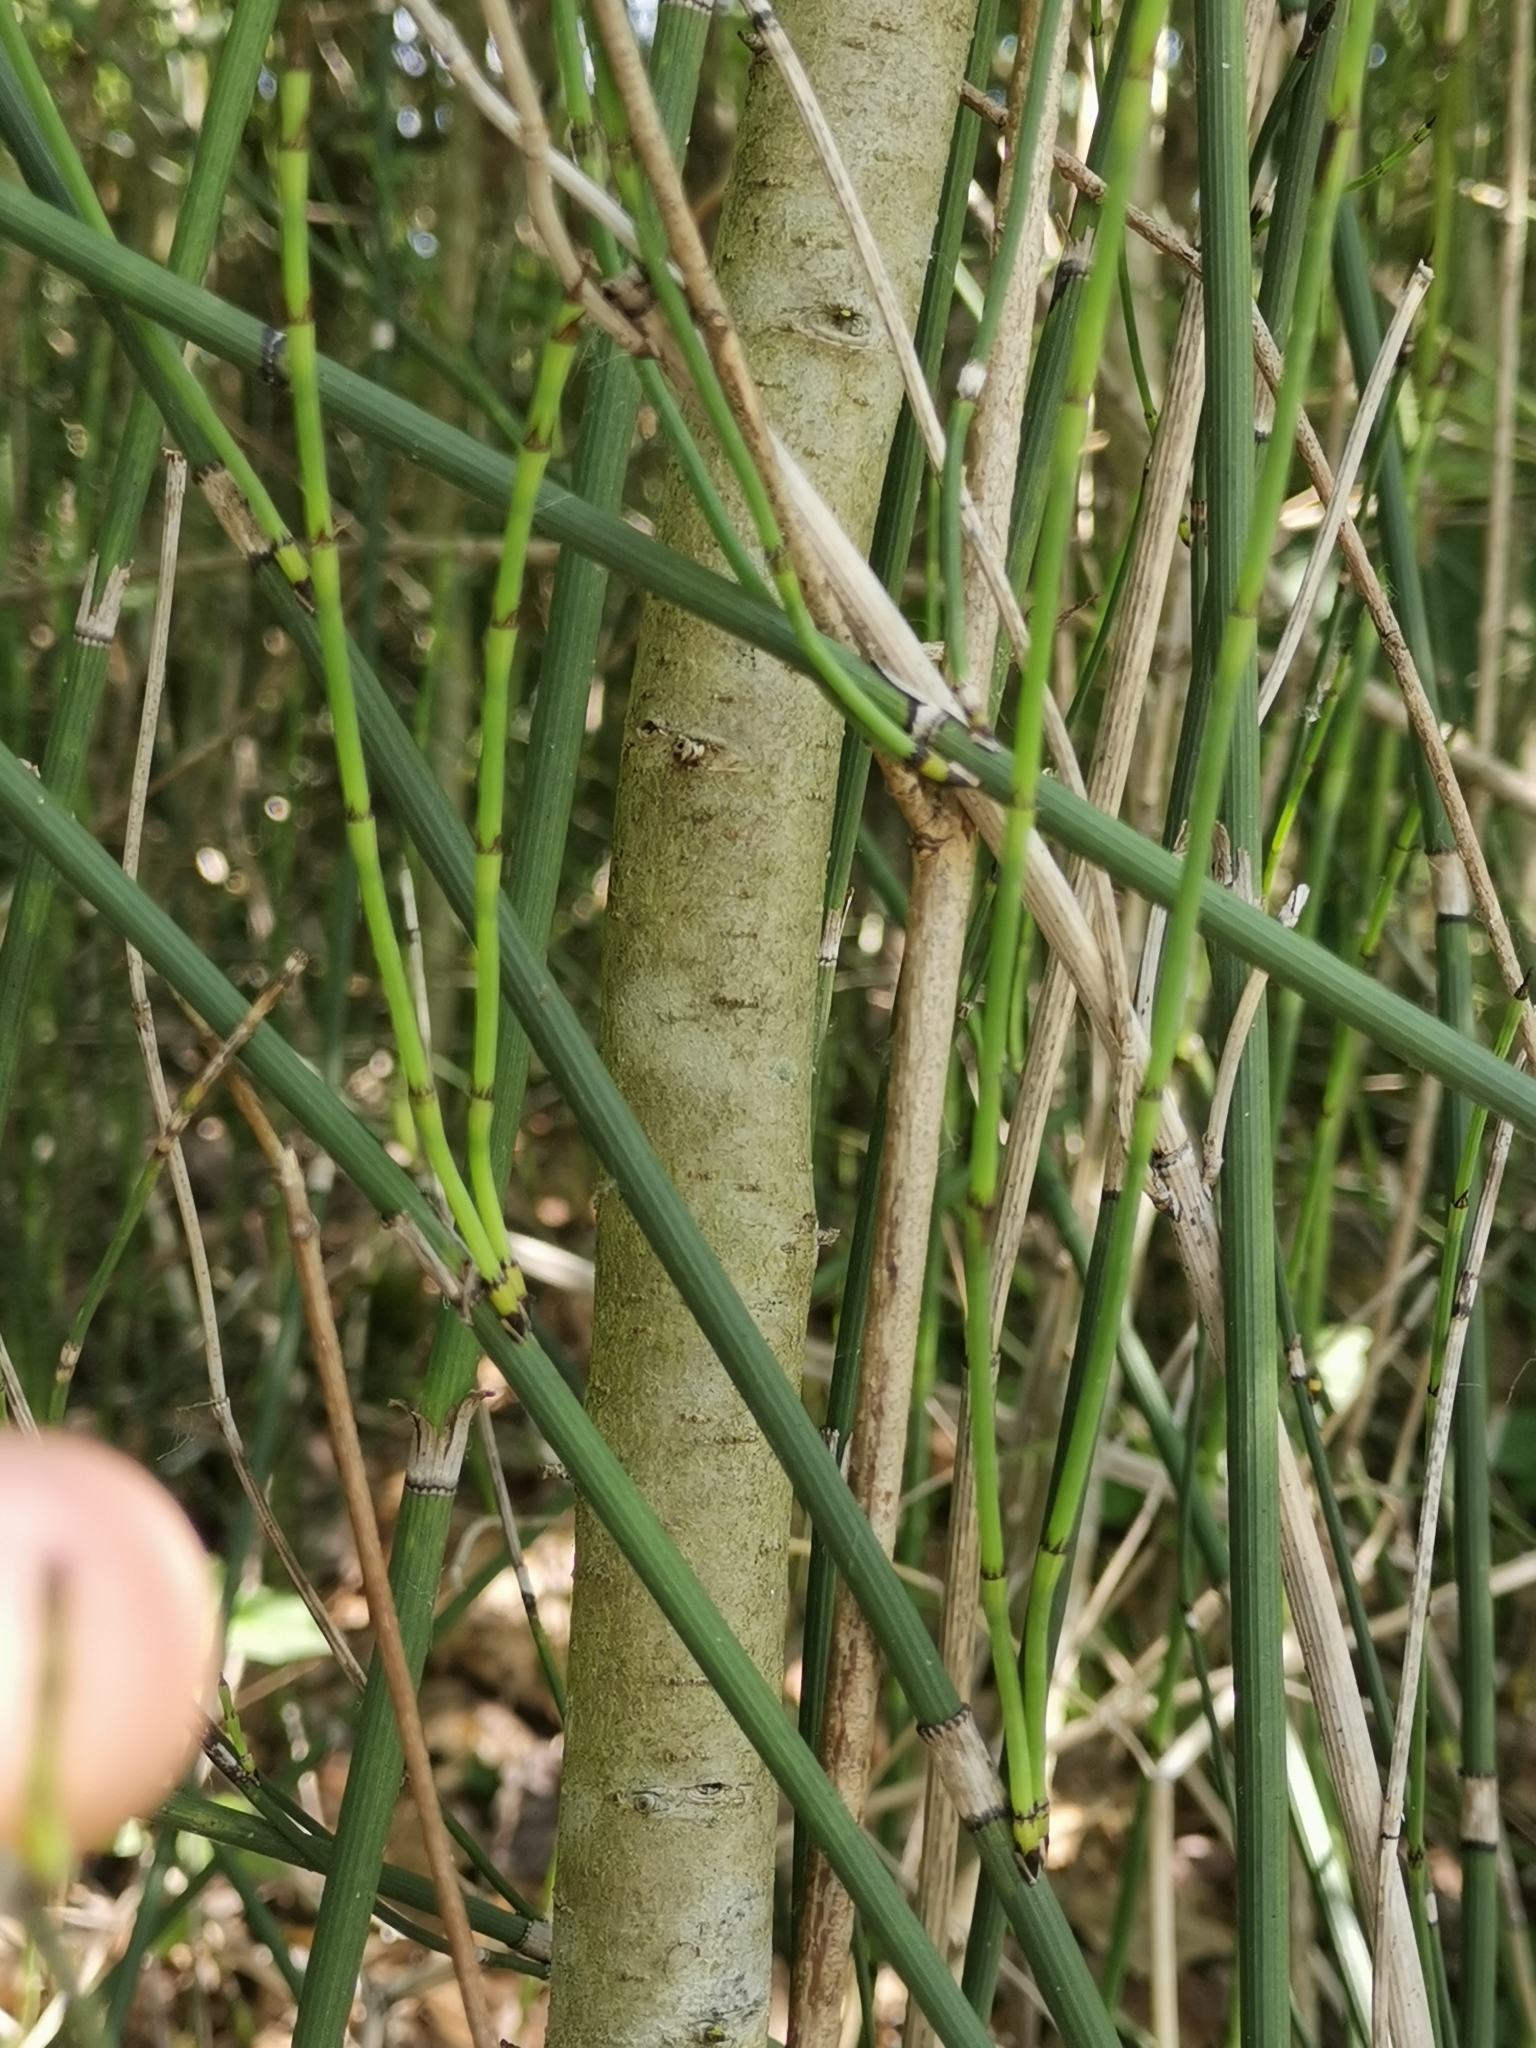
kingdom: Plantae
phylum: Tracheophyta
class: Polypodiopsida
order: Equisetales
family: Equisetaceae
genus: Equisetum
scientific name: Equisetum moorei
